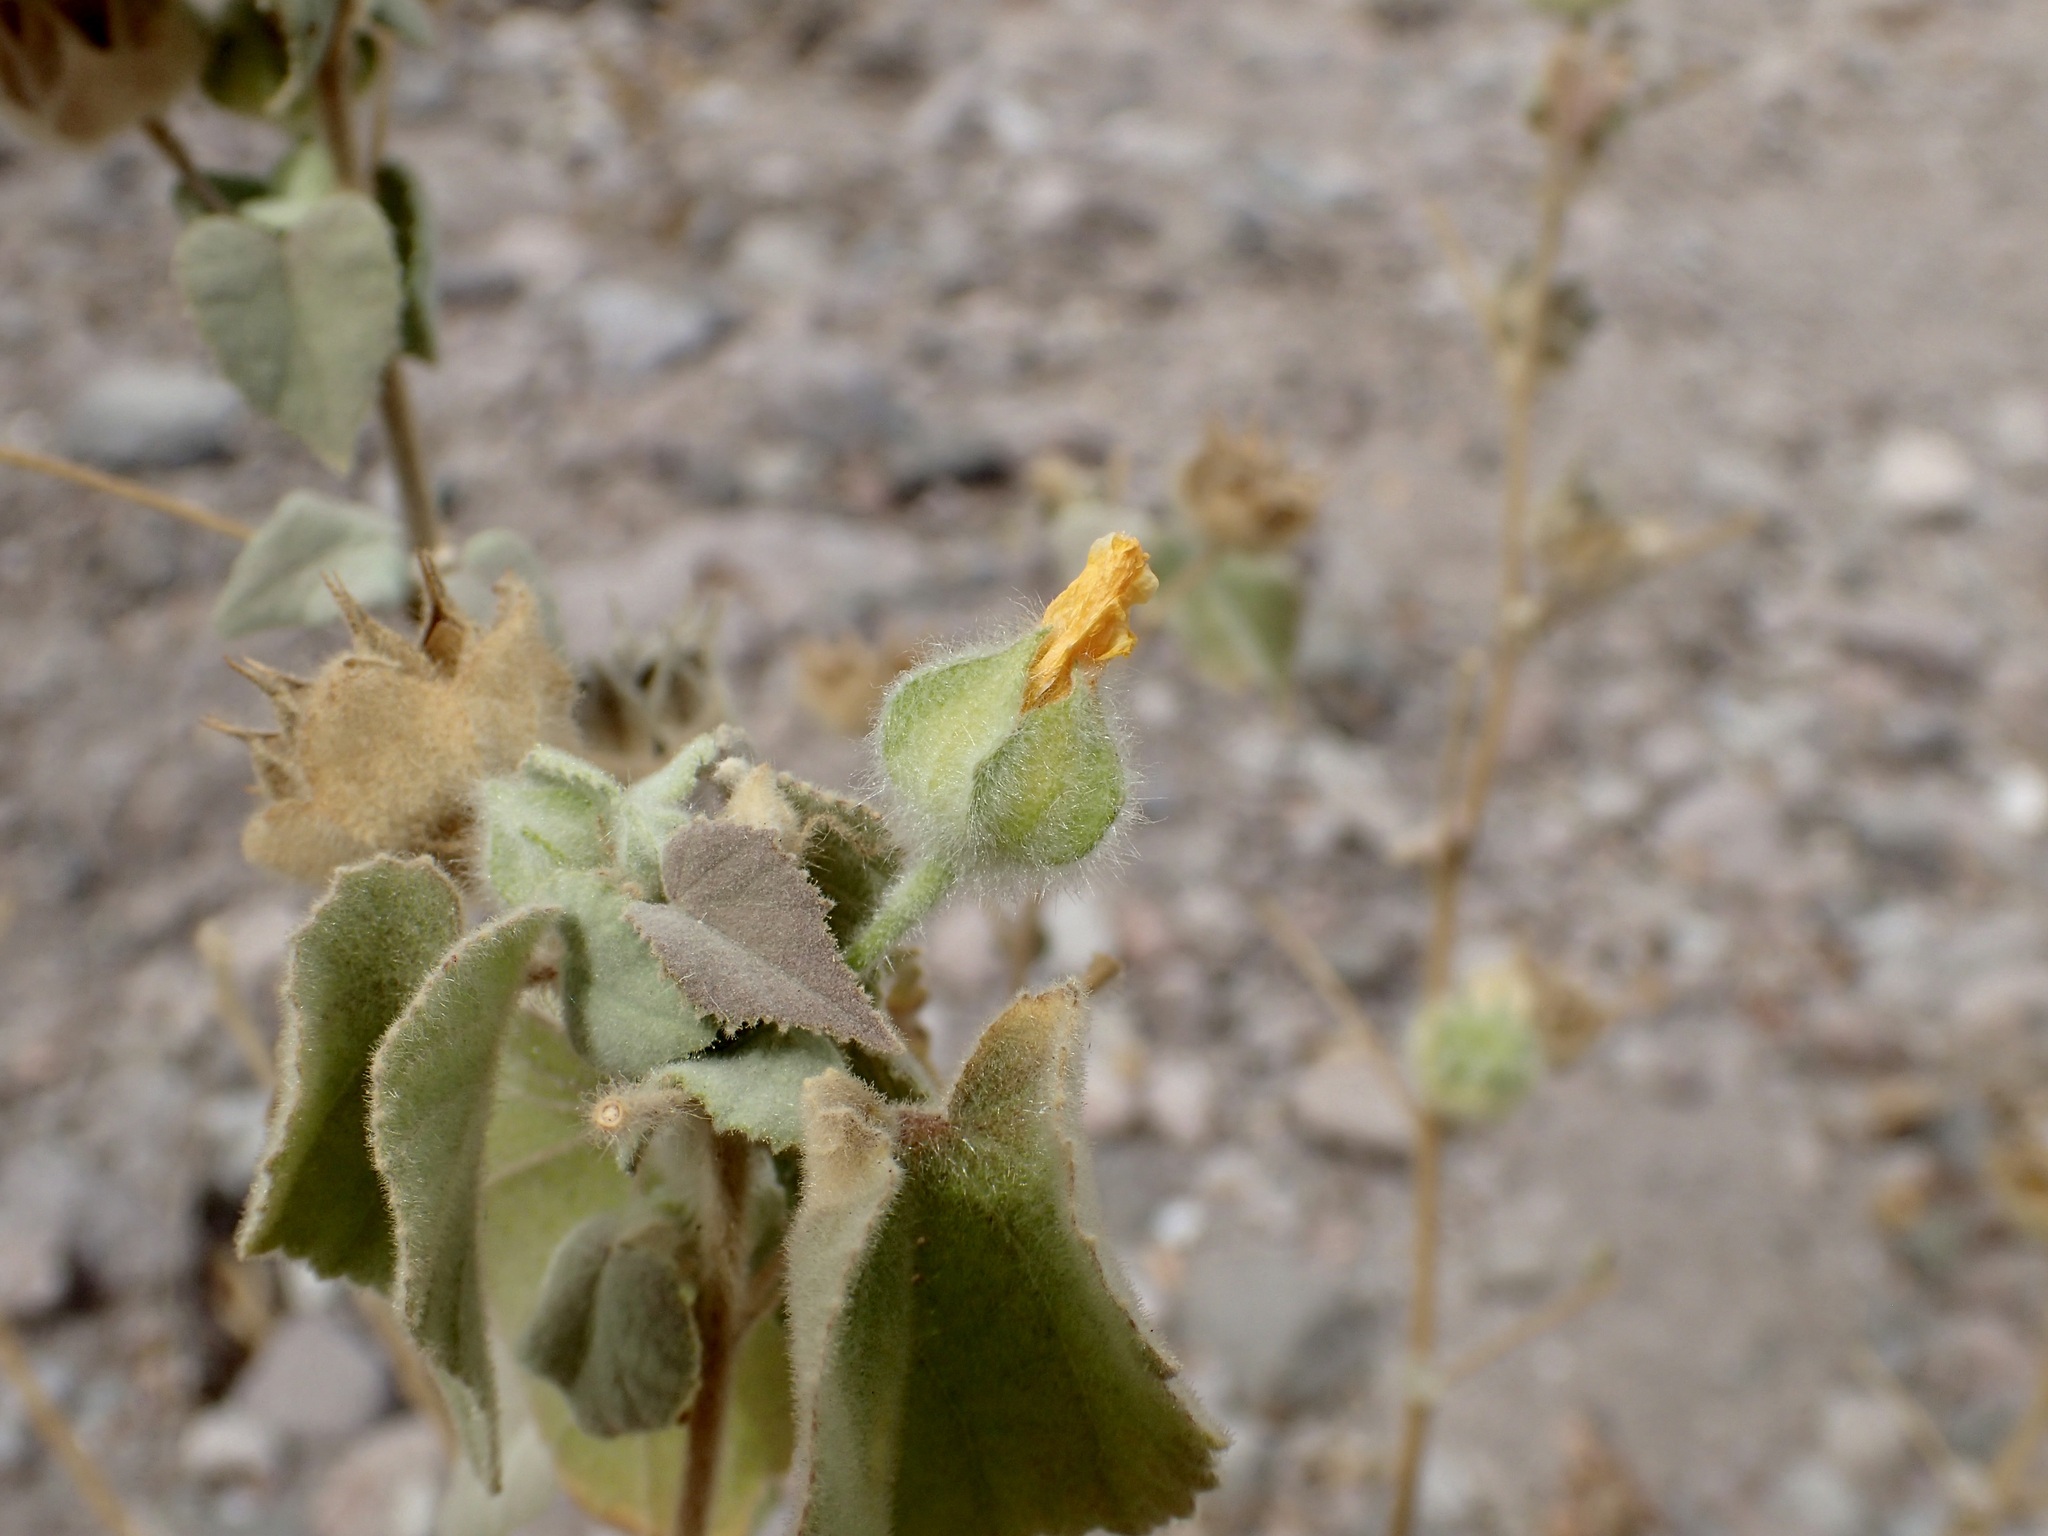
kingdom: Plantae
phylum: Tracheophyta
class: Magnoliopsida
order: Malvales
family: Malvaceae
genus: Abutilon
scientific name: Abutilon palmeri
